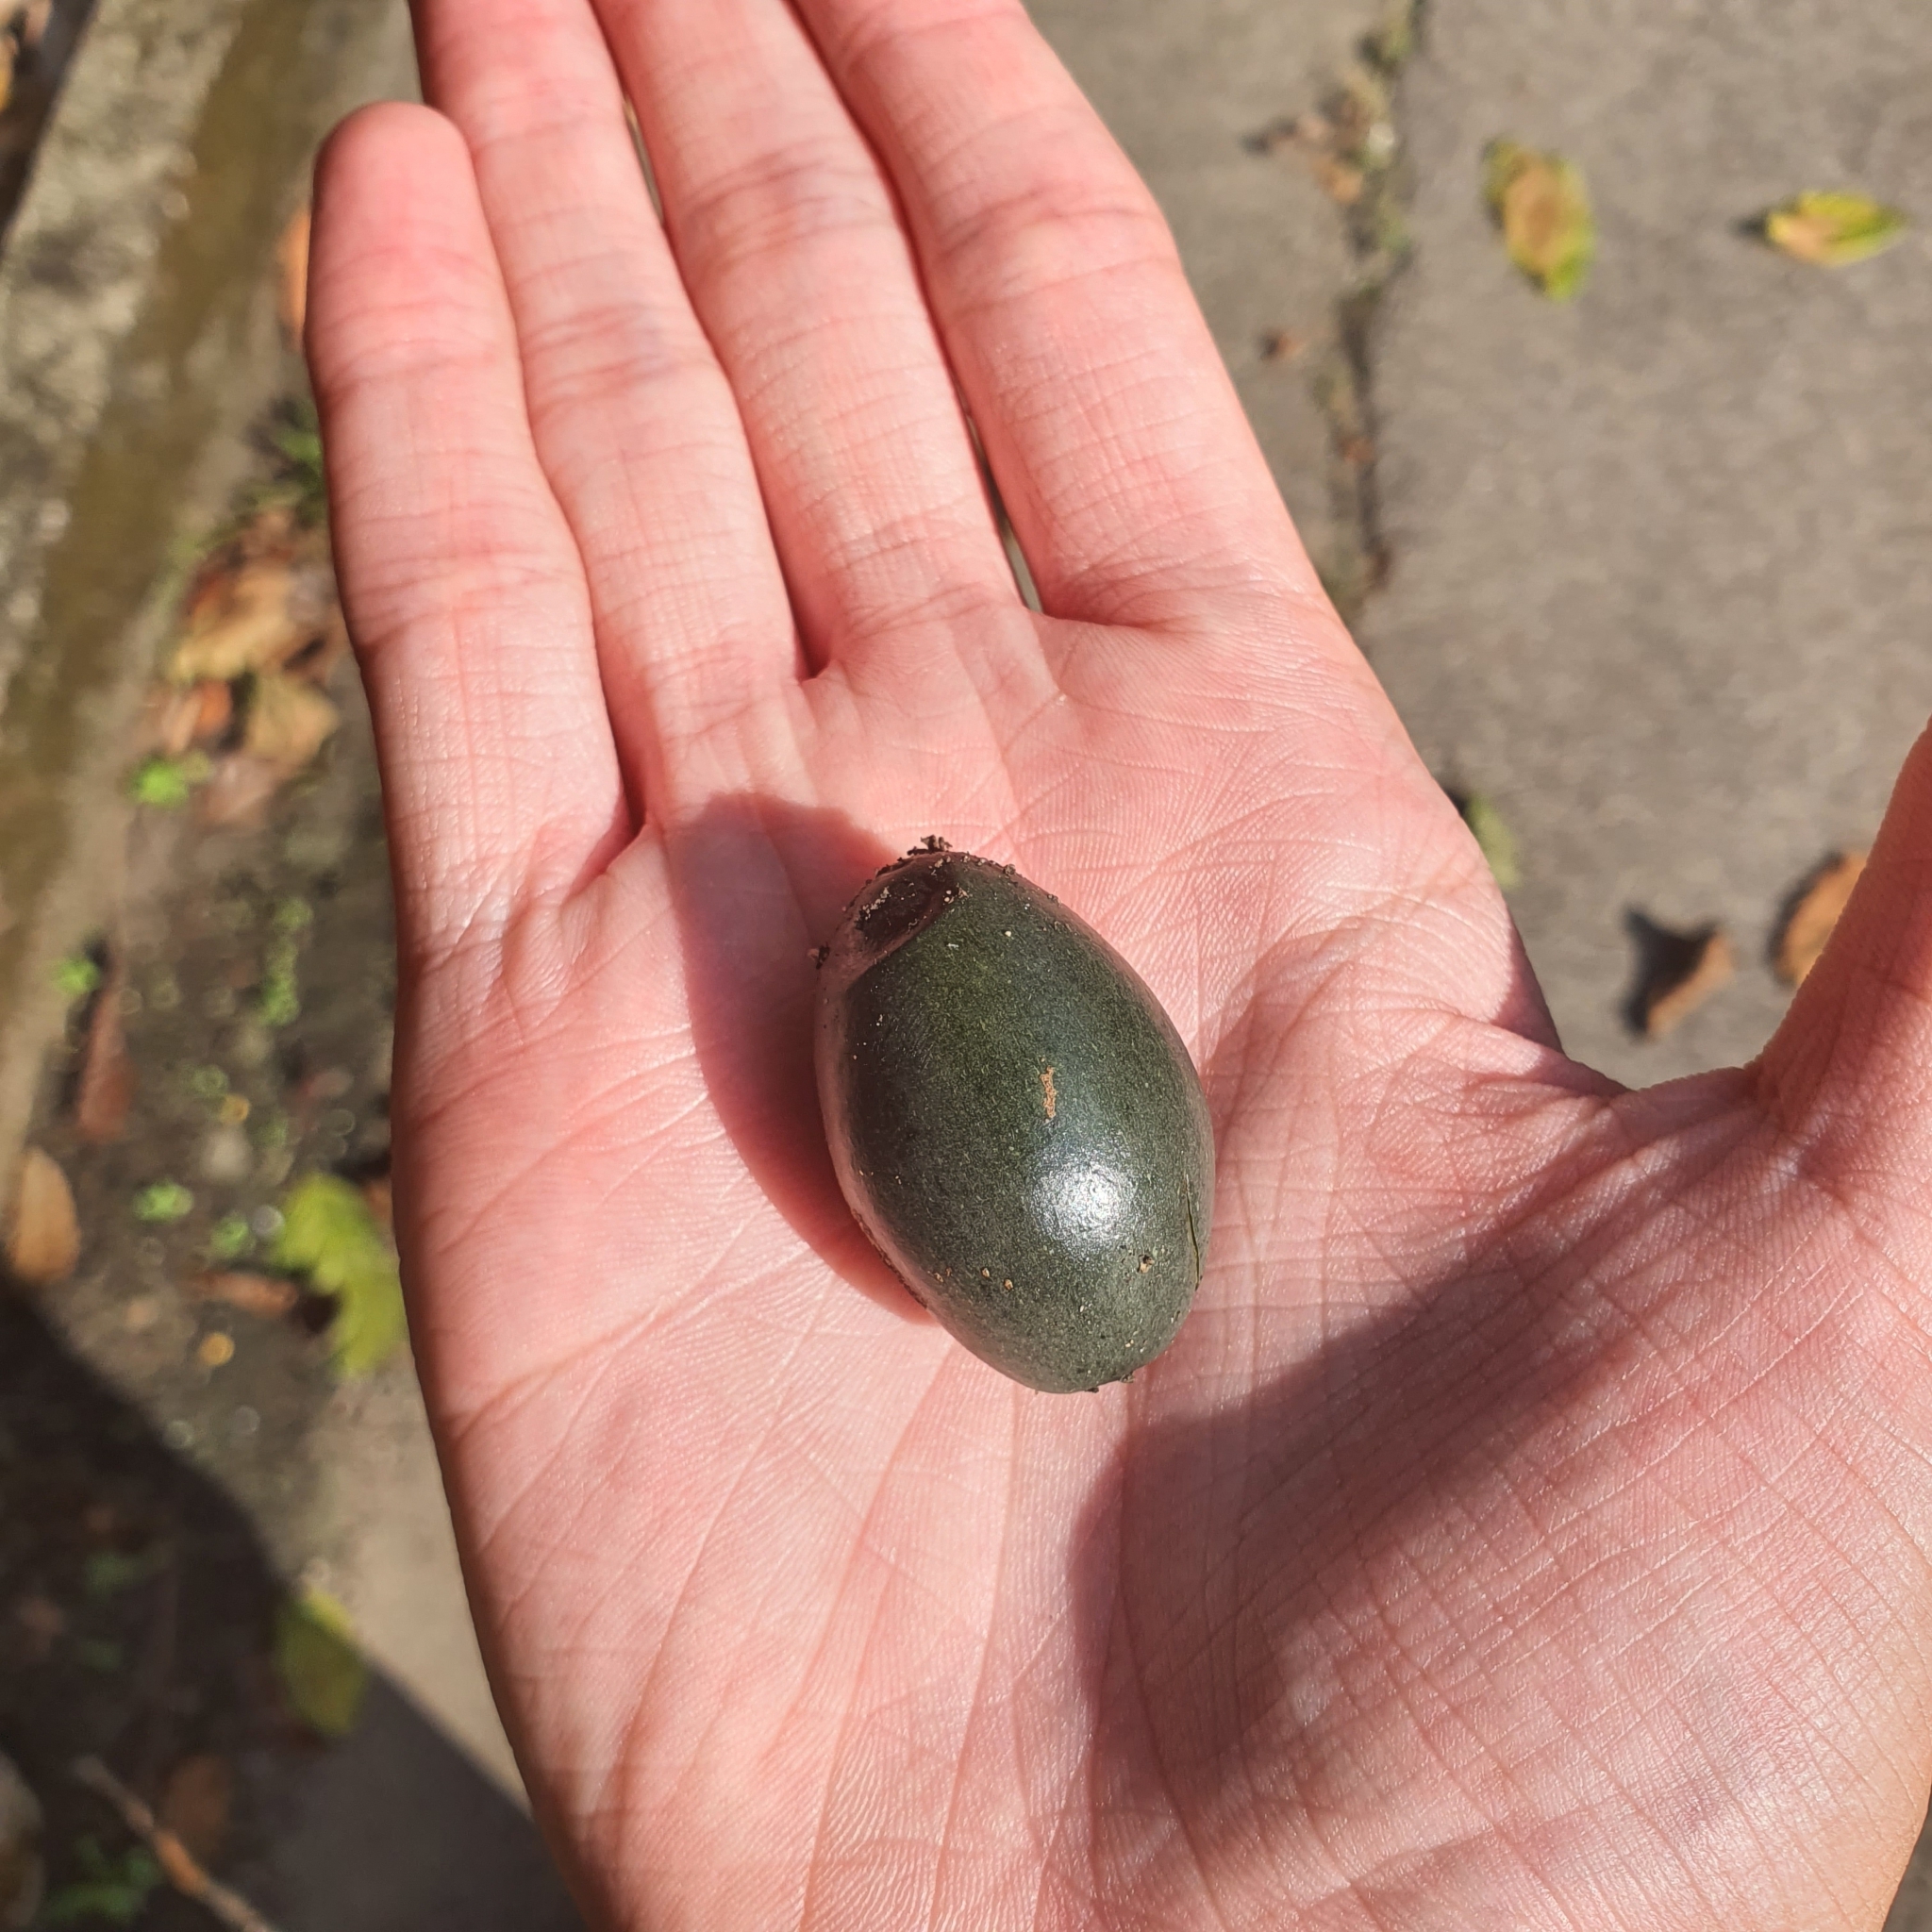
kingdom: Plantae
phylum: Tracheophyta
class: Magnoliopsida
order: Gentianales
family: Rubiaceae
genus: Canthiumera
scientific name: Canthiumera robusta
